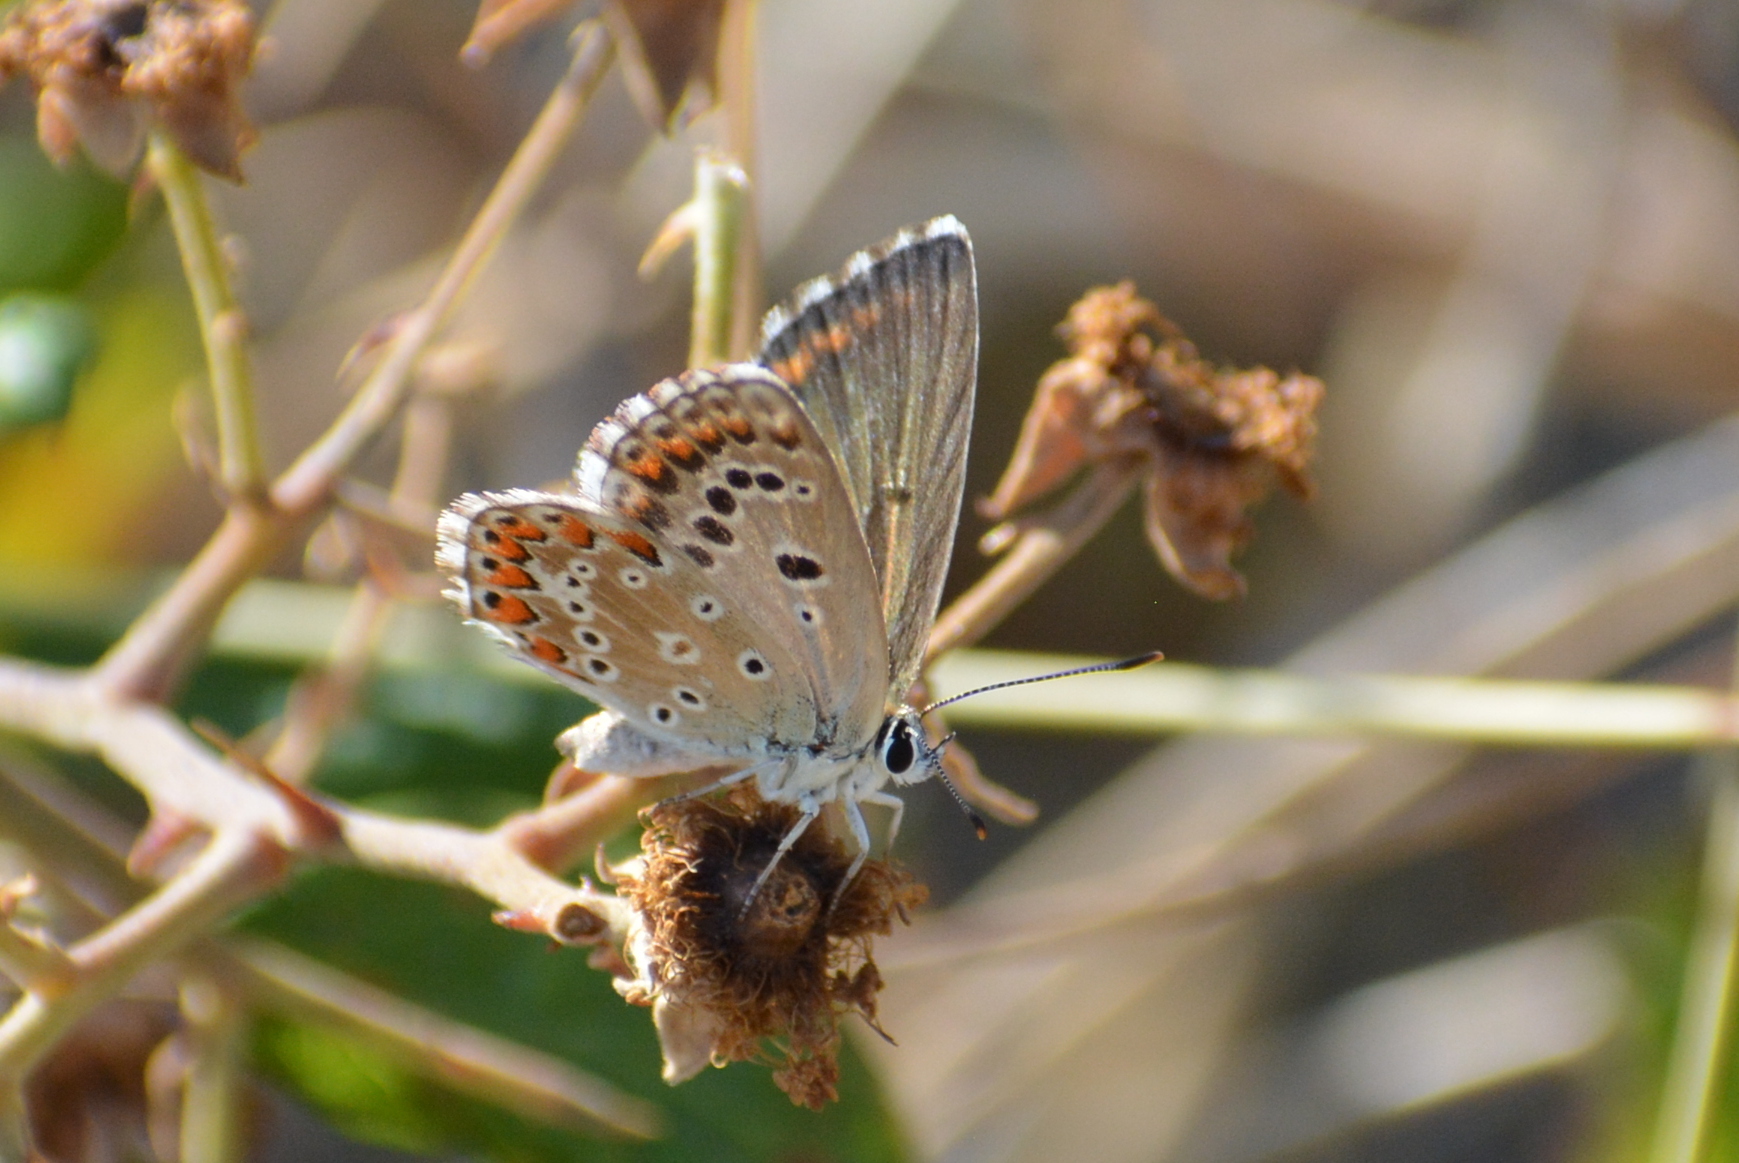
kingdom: Animalia
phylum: Arthropoda
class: Insecta
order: Lepidoptera
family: Lycaenidae
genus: Lysandra
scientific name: Lysandra bellargus
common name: Adonis blue
